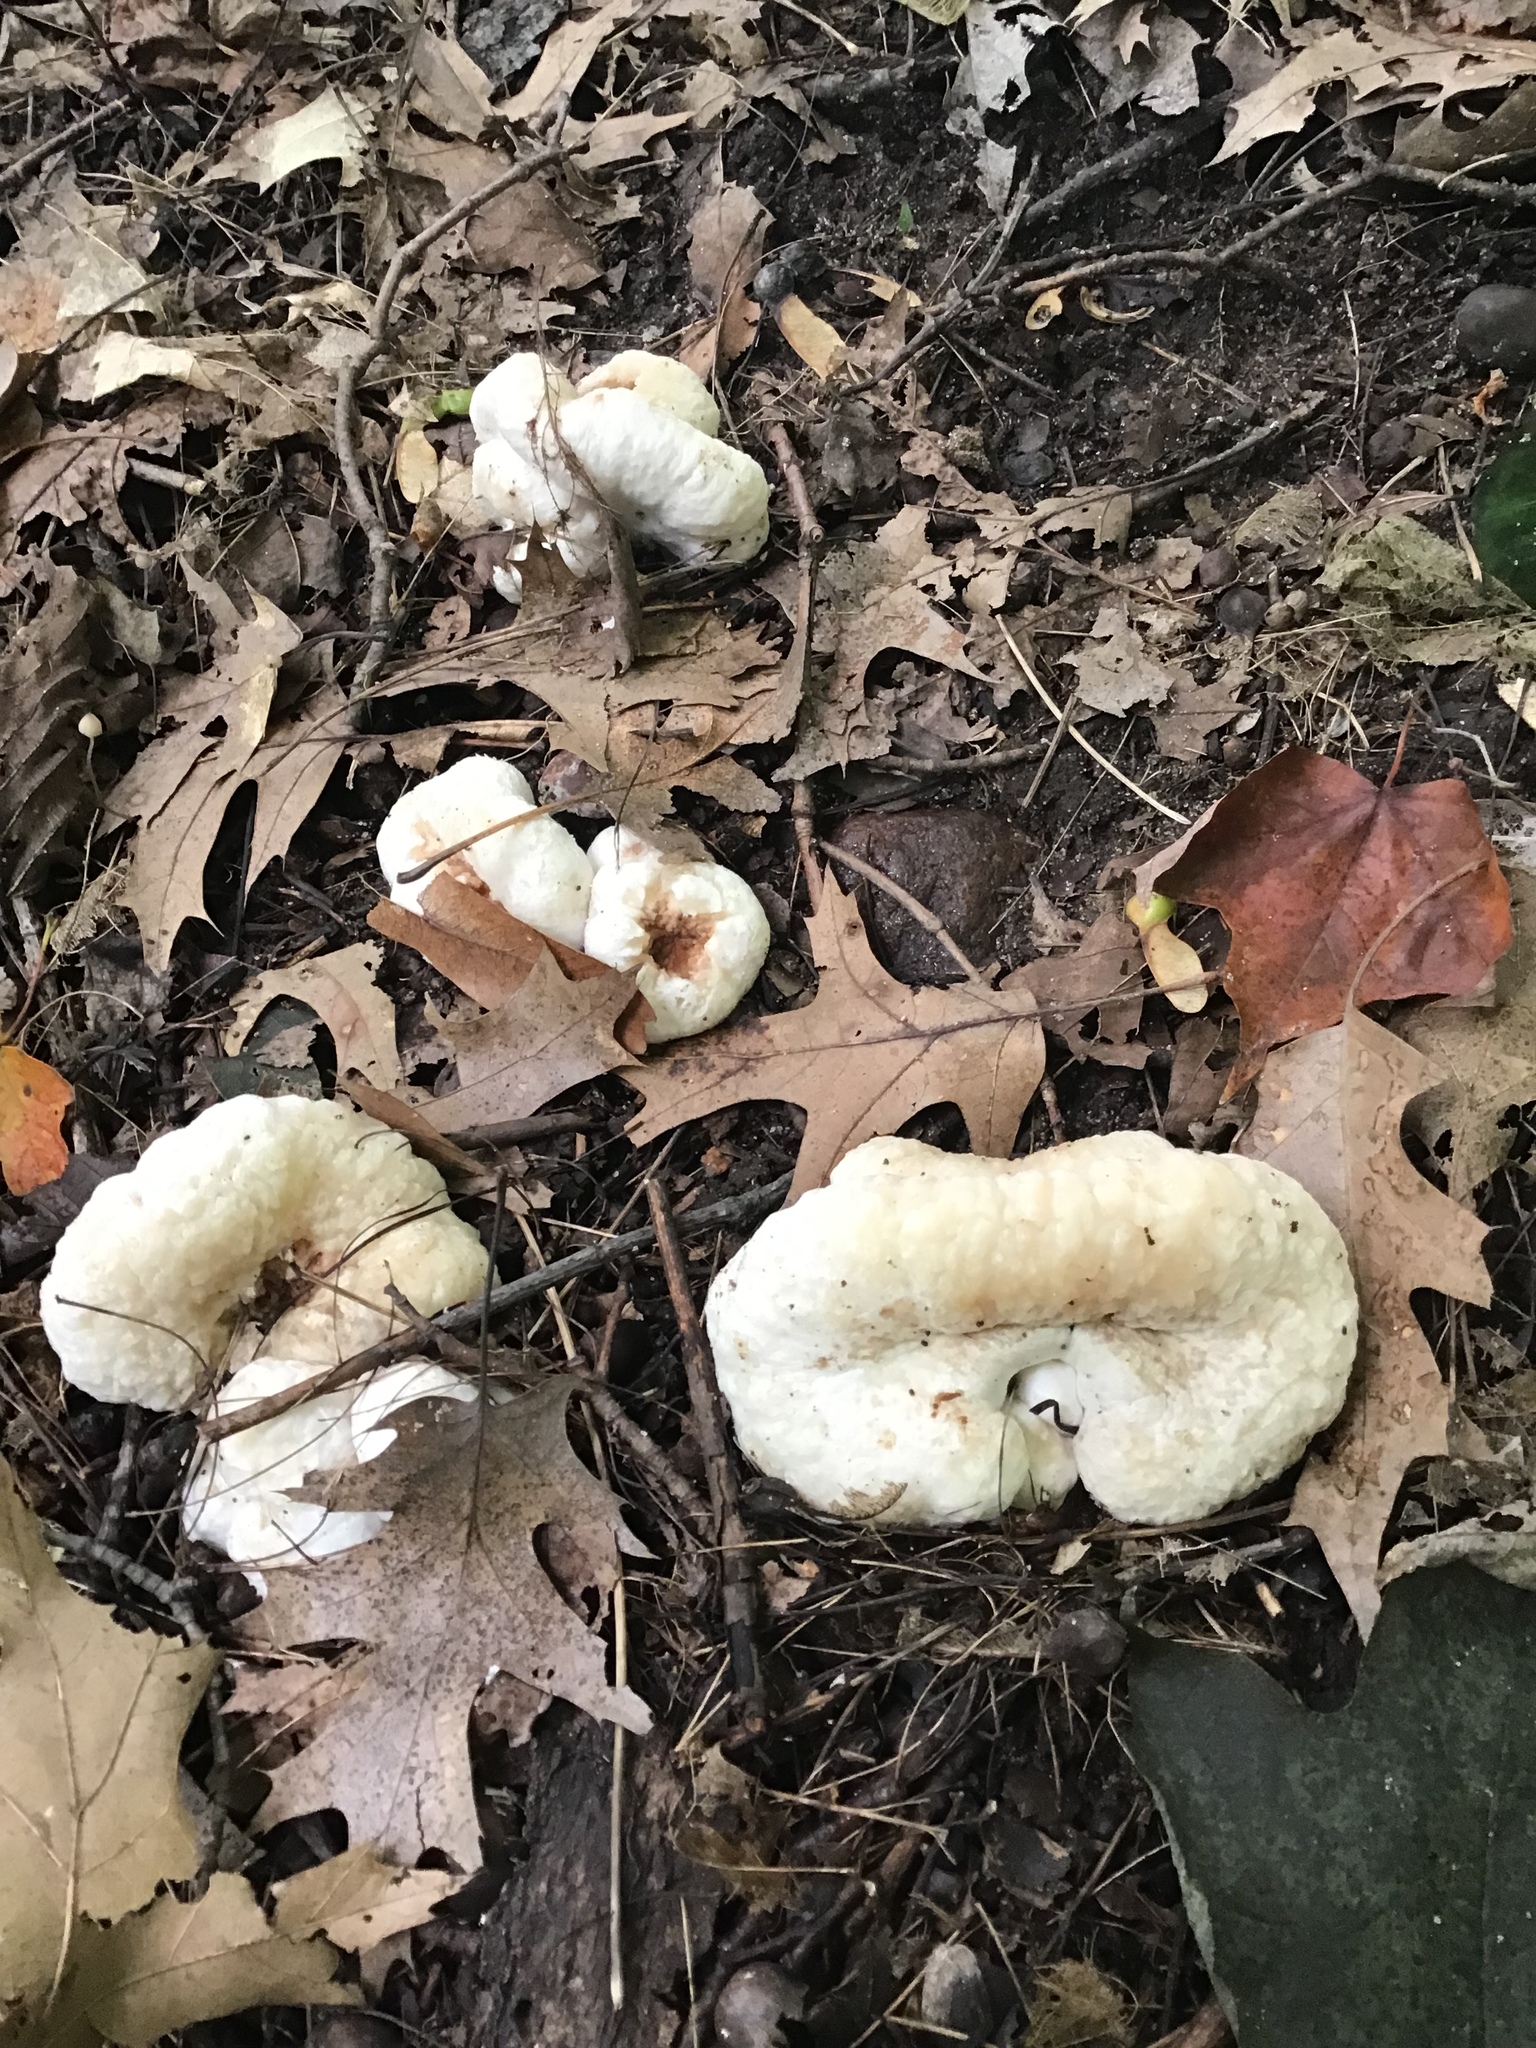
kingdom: Fungi
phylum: Basidiomycota
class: Agaricomycetes
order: Agaricales
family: Entolomataceae
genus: Entoloma
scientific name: Entoloma abortivum
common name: Aborted entoloma
